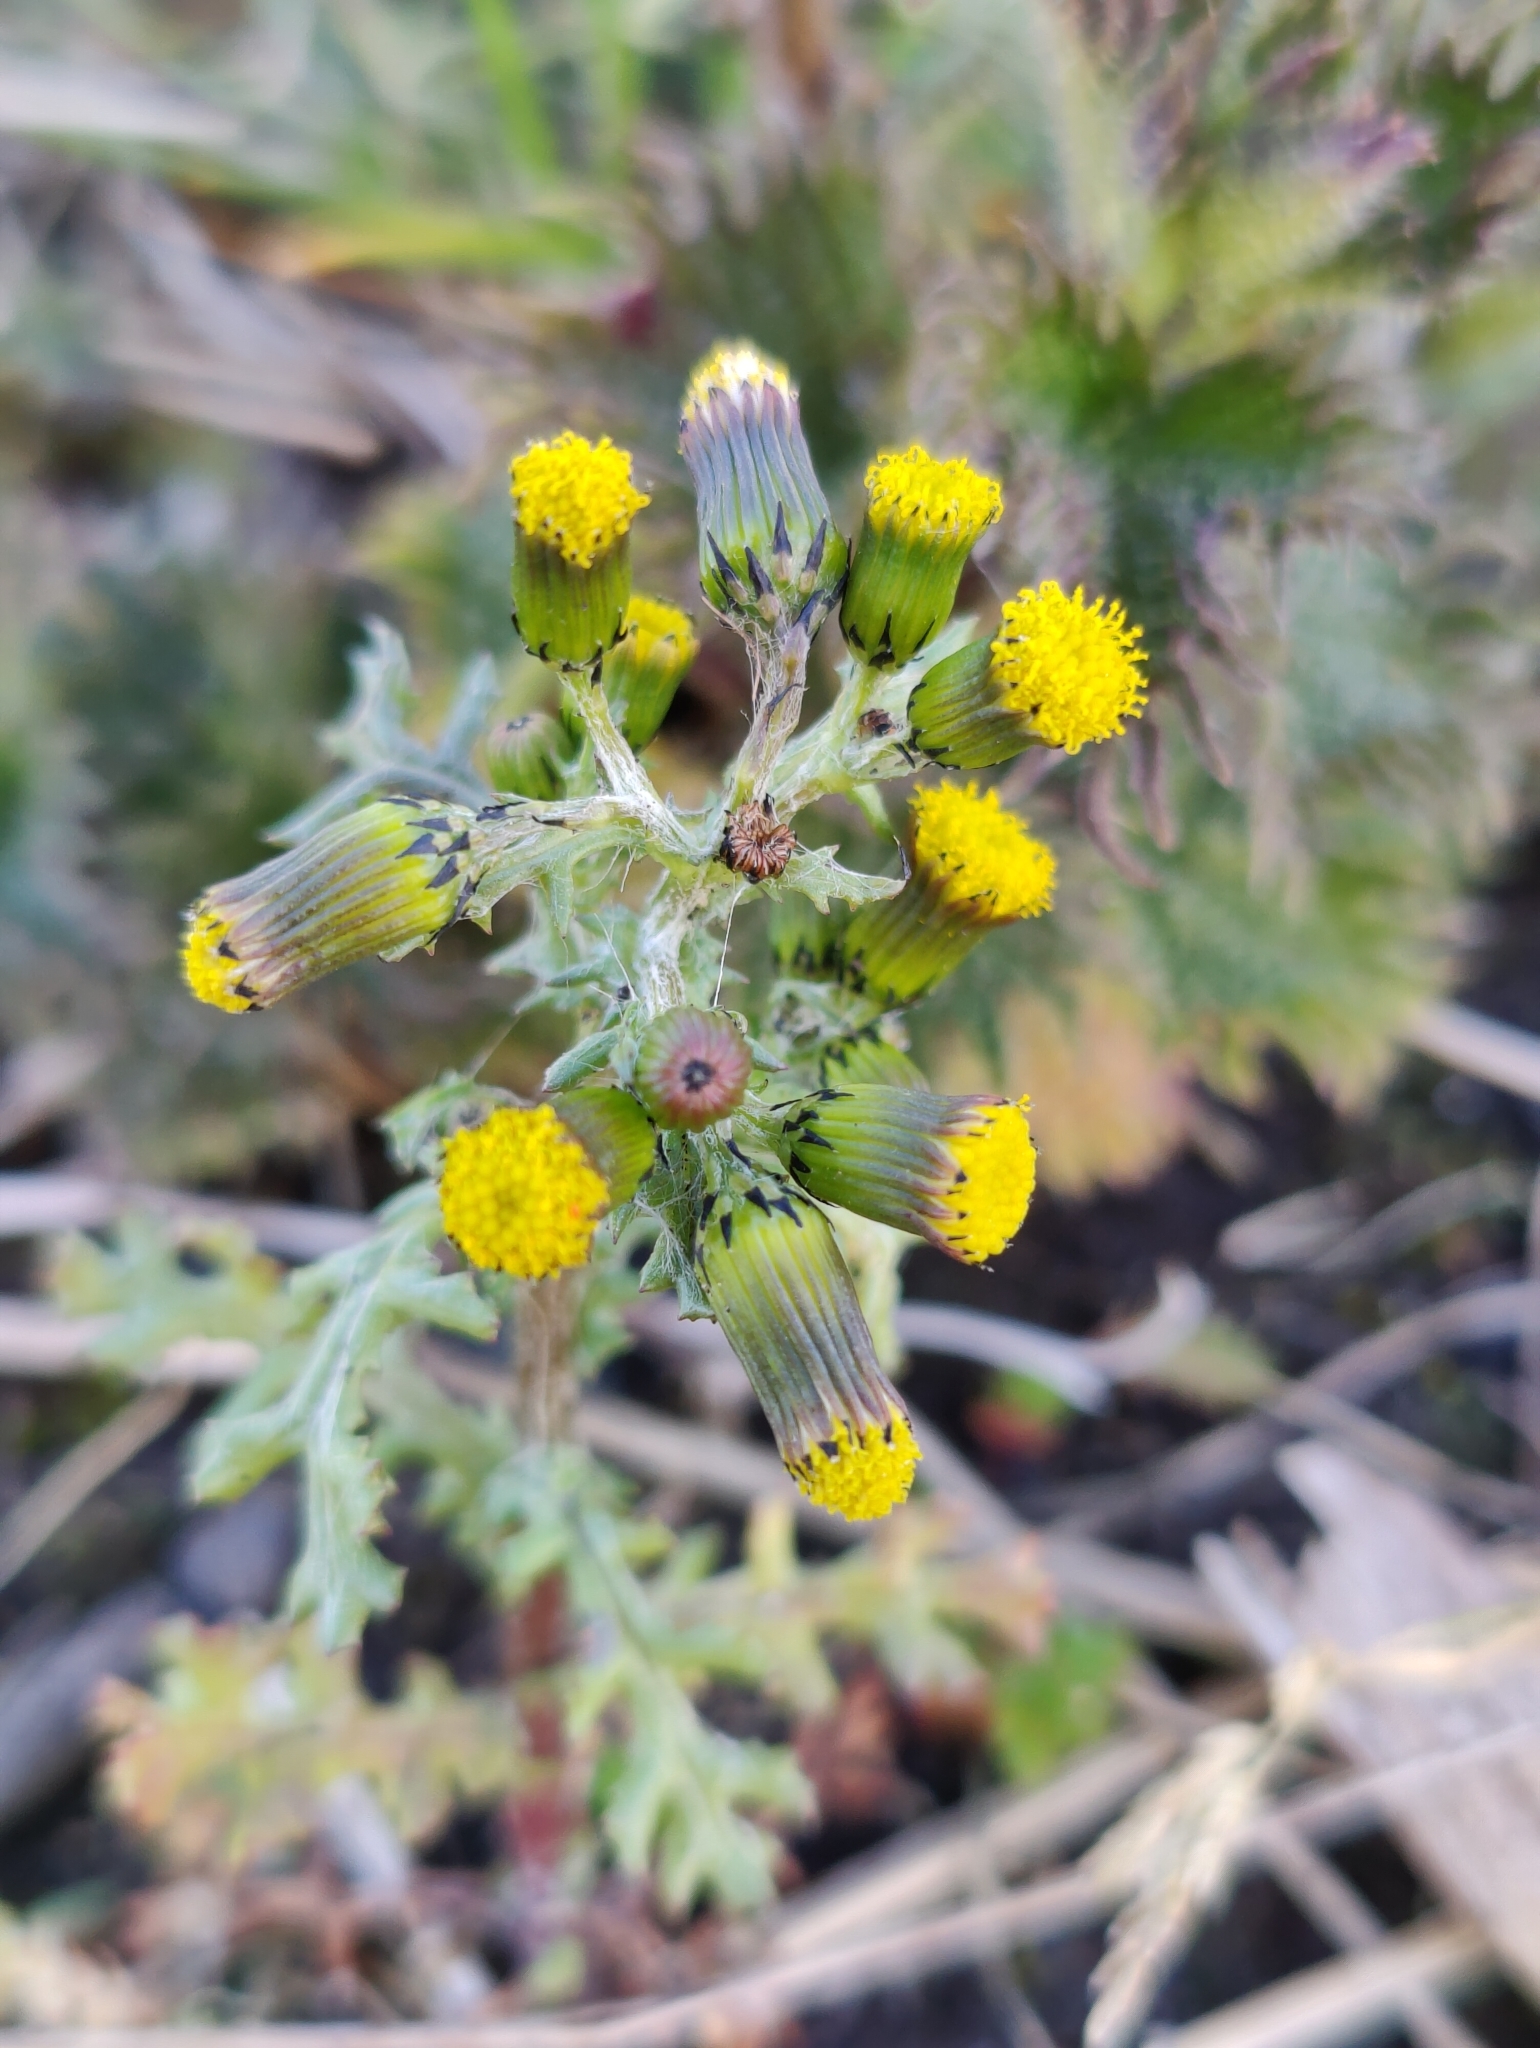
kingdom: Plantae
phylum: Tracheophyta
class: Magnoliopsida
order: Asterales
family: Asteraceae
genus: Senecio
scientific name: Senecio vulgaris
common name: Old-man-in-the-spring
